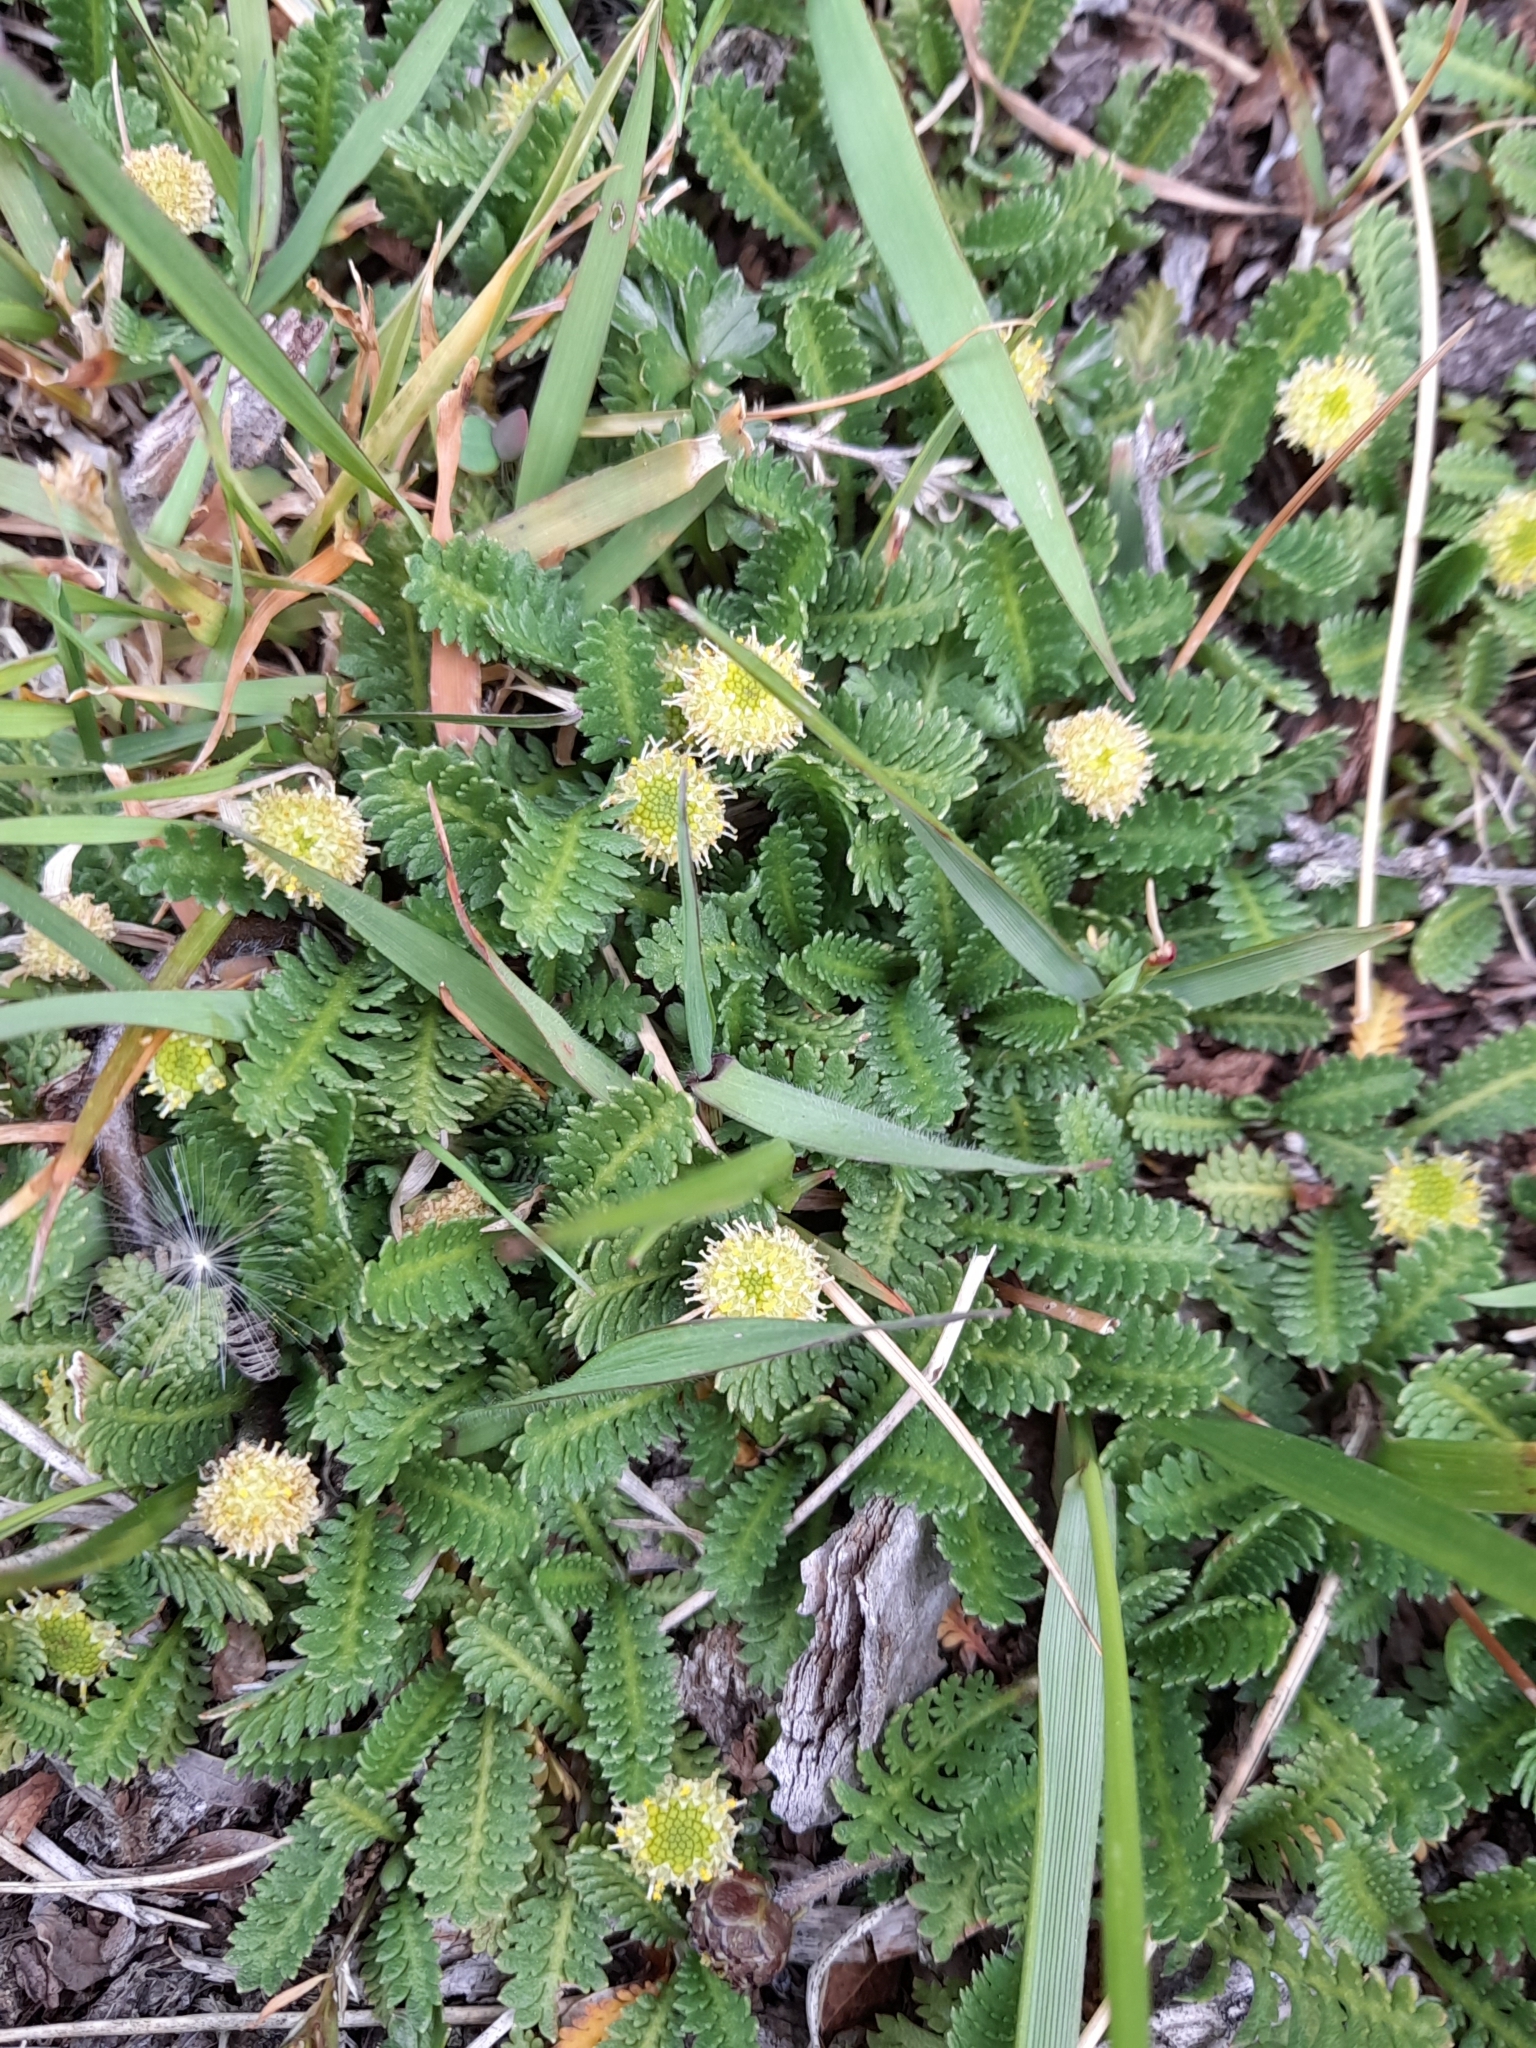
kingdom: Plantae
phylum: Tracheophyta
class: Magnoliopsida
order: Asterales
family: Asteraceae
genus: Leptinella
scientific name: Leptinella scariosa
